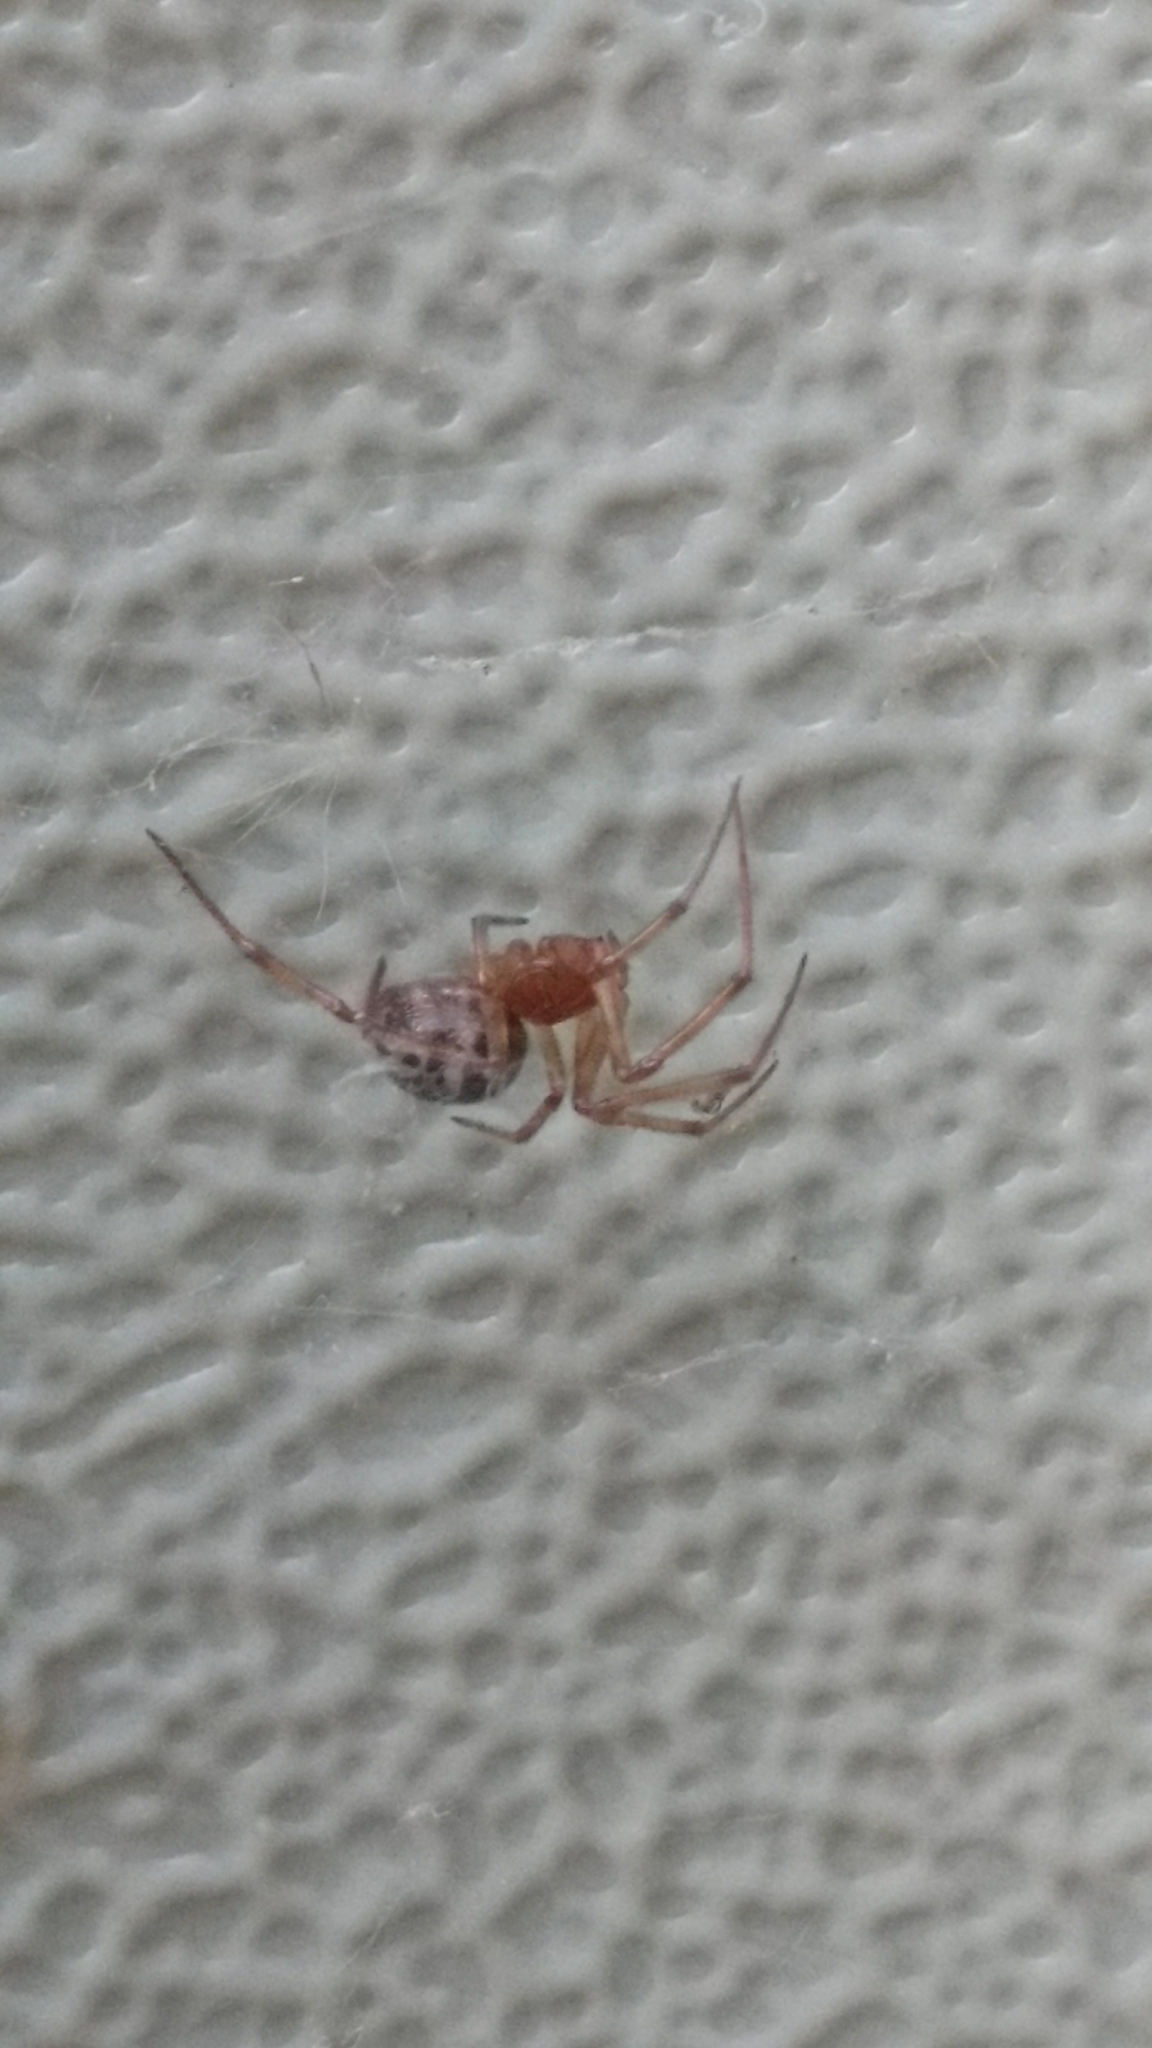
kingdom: Animalia
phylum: Arthropoda
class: Arachnida
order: Araneae
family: Theridiidae
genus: Steatoda
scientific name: Steatoda triangulosa
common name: Triangulate bud spider
